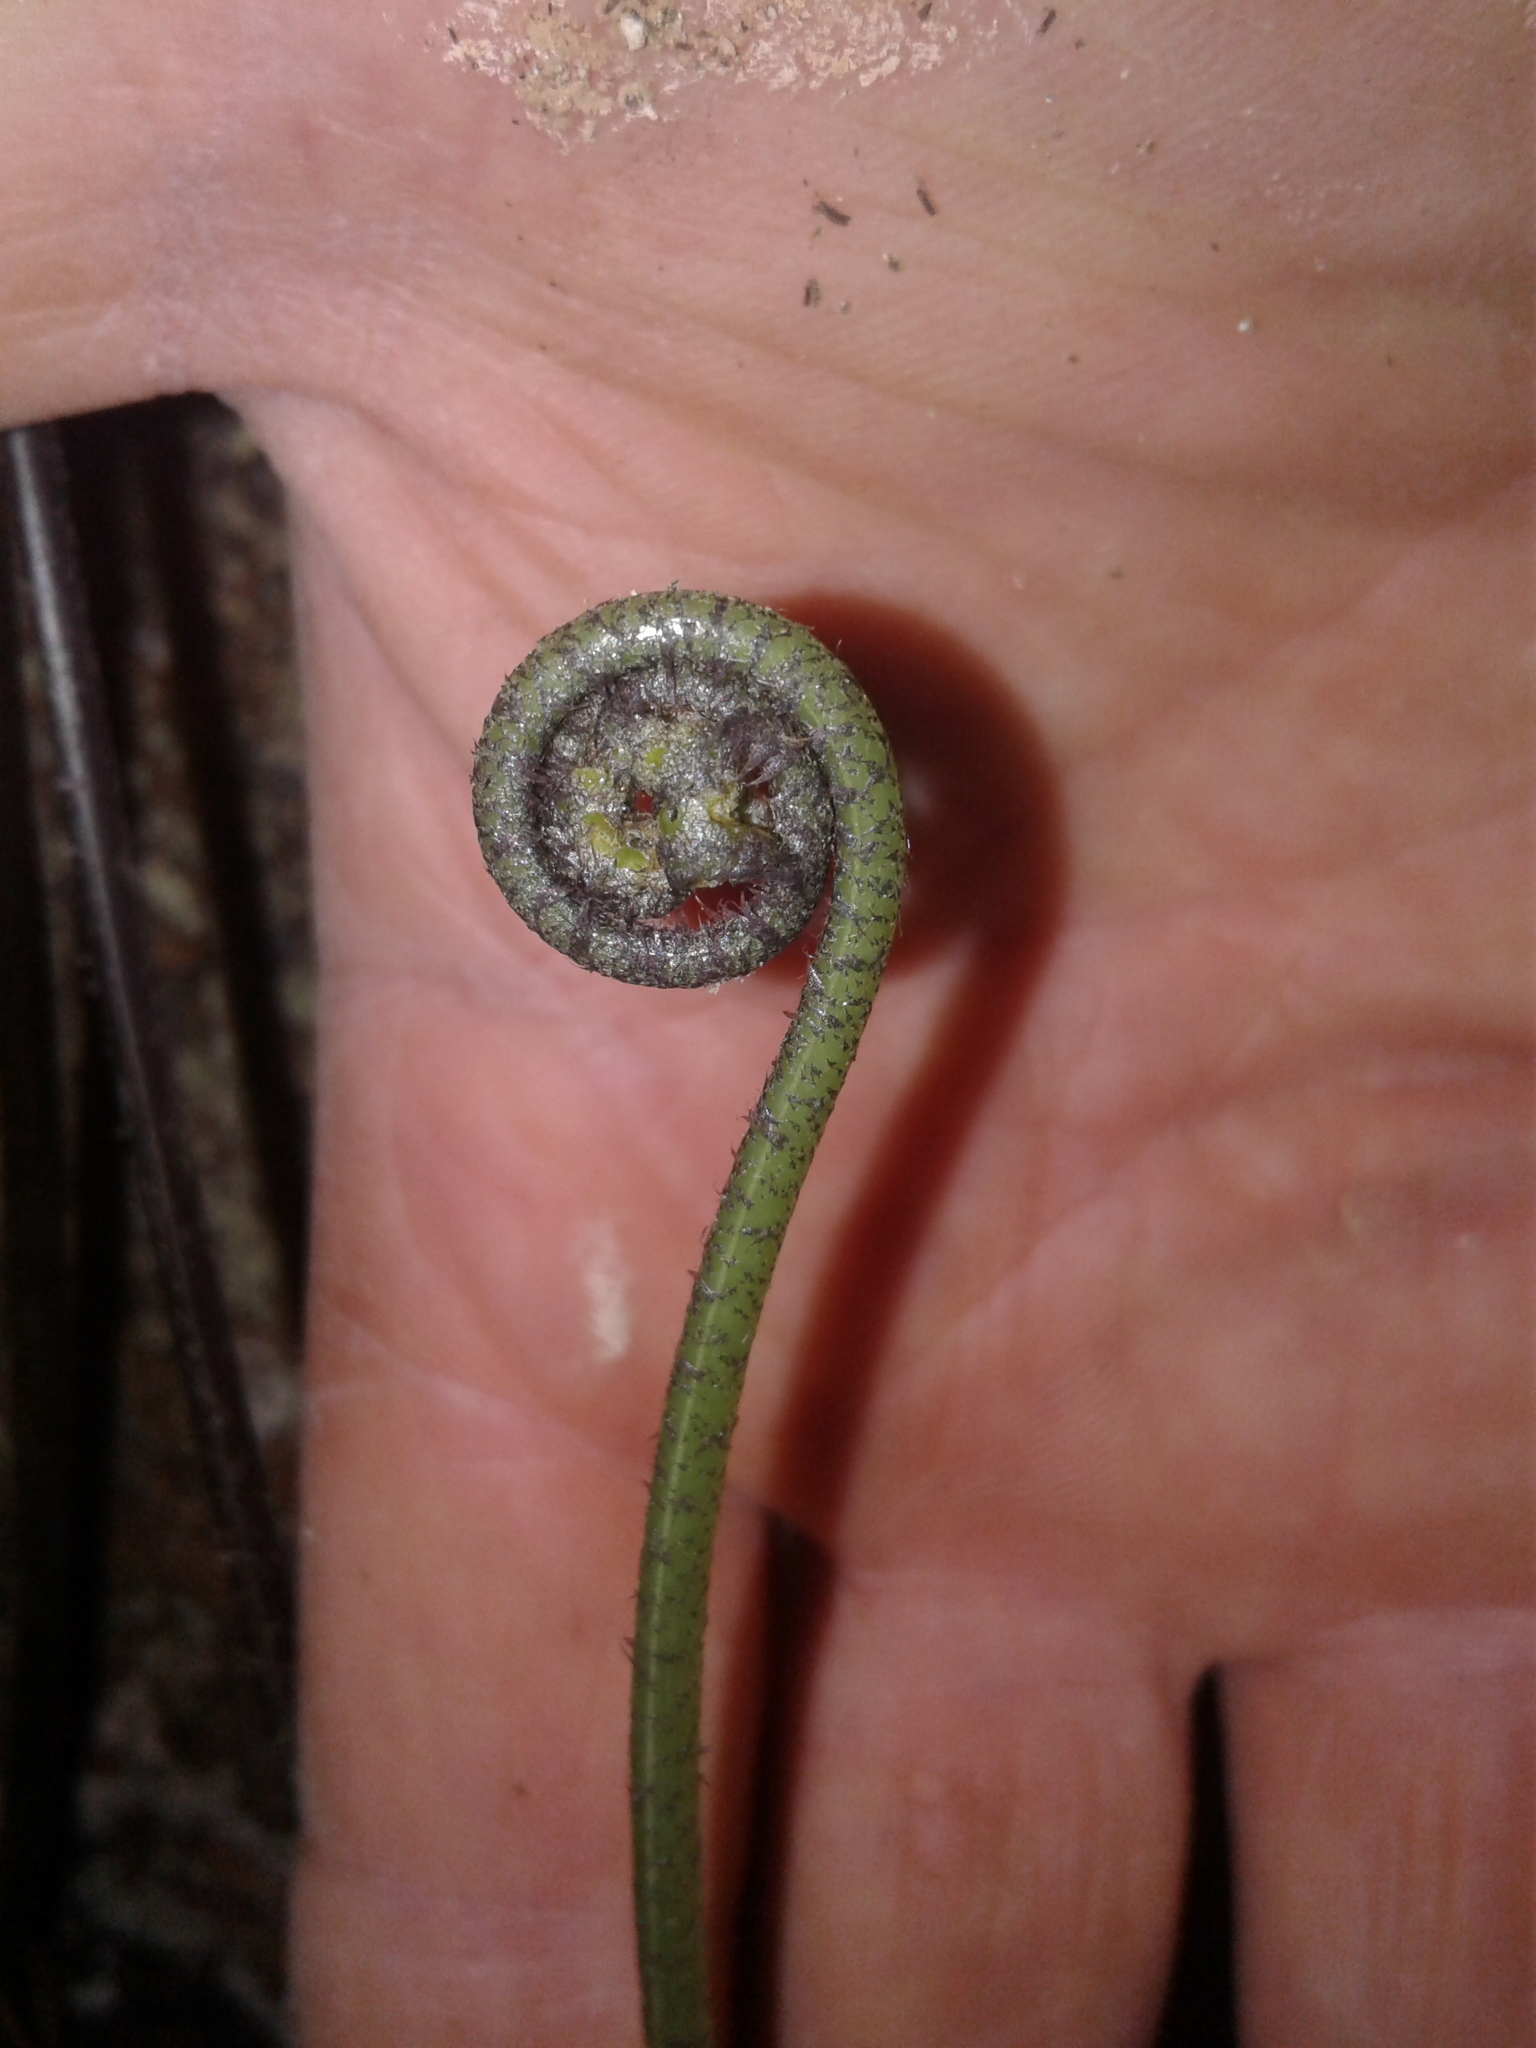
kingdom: Plantae
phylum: Tracheophyta
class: Polypodiopsida
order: Polypodiales
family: Aspleniaceae
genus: Asplenium
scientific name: Asplenium lepidotum
